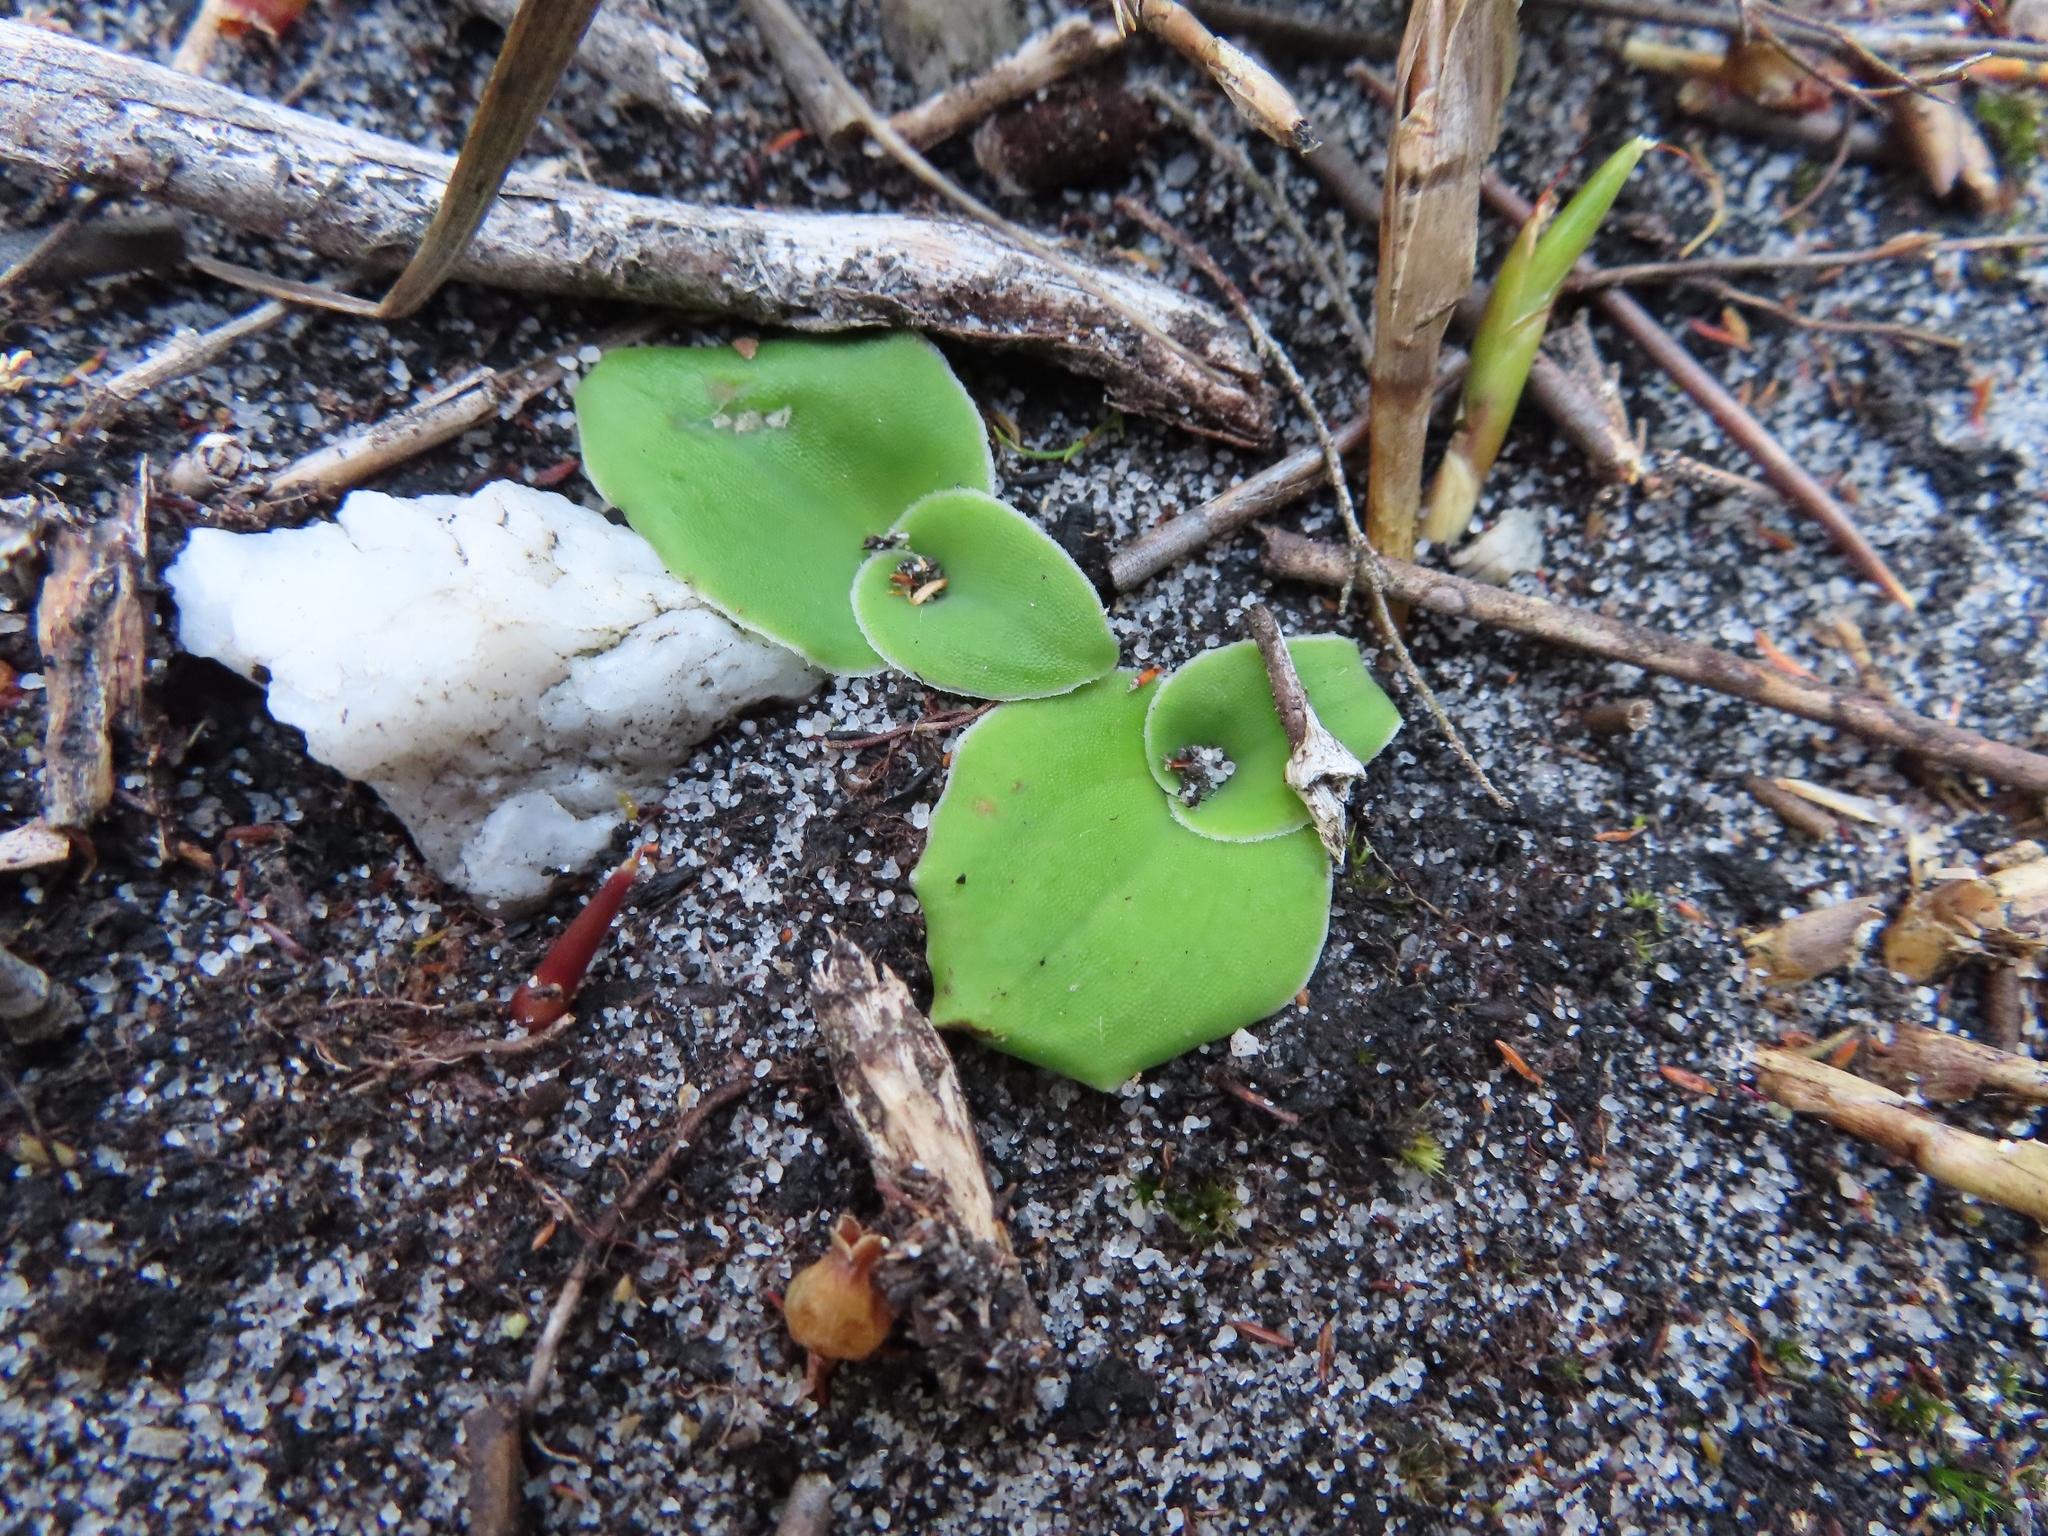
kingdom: Plantae
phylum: Tracheophyta
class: Liliopsida
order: Asparagales
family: Orchidaceae
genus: Satyrium
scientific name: Satyrium odorum
